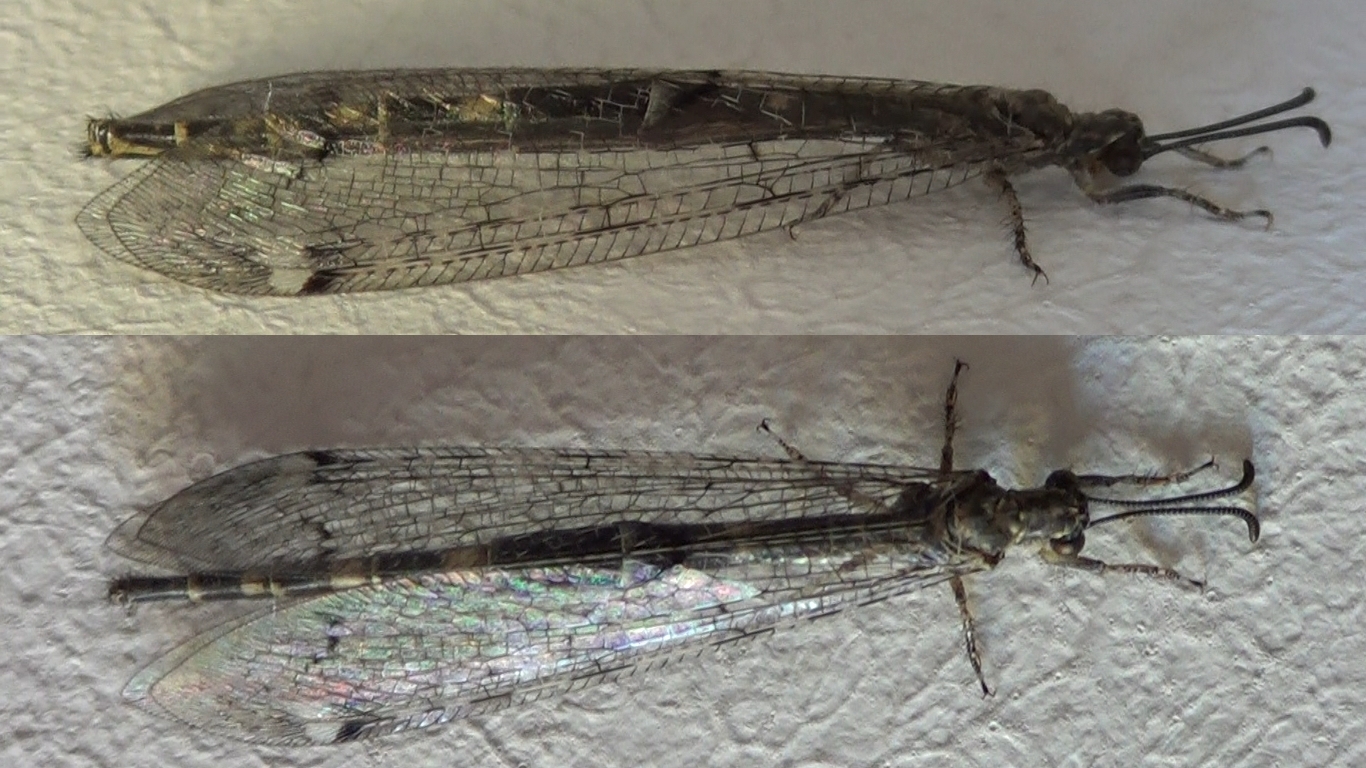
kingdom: Animalia
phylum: Arthropoda
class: Insecta
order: Neuroptera
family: Myrmeleontidae
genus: Distoleon
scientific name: Distoleon tetragrammicus
